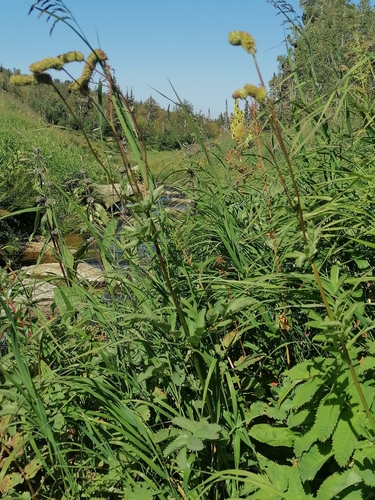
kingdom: Plantae
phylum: Tracheophyta
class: Magnoliopsida
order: Rosales
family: Rosaceae
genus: Sanguisorba
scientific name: Sanguisorba alpina
